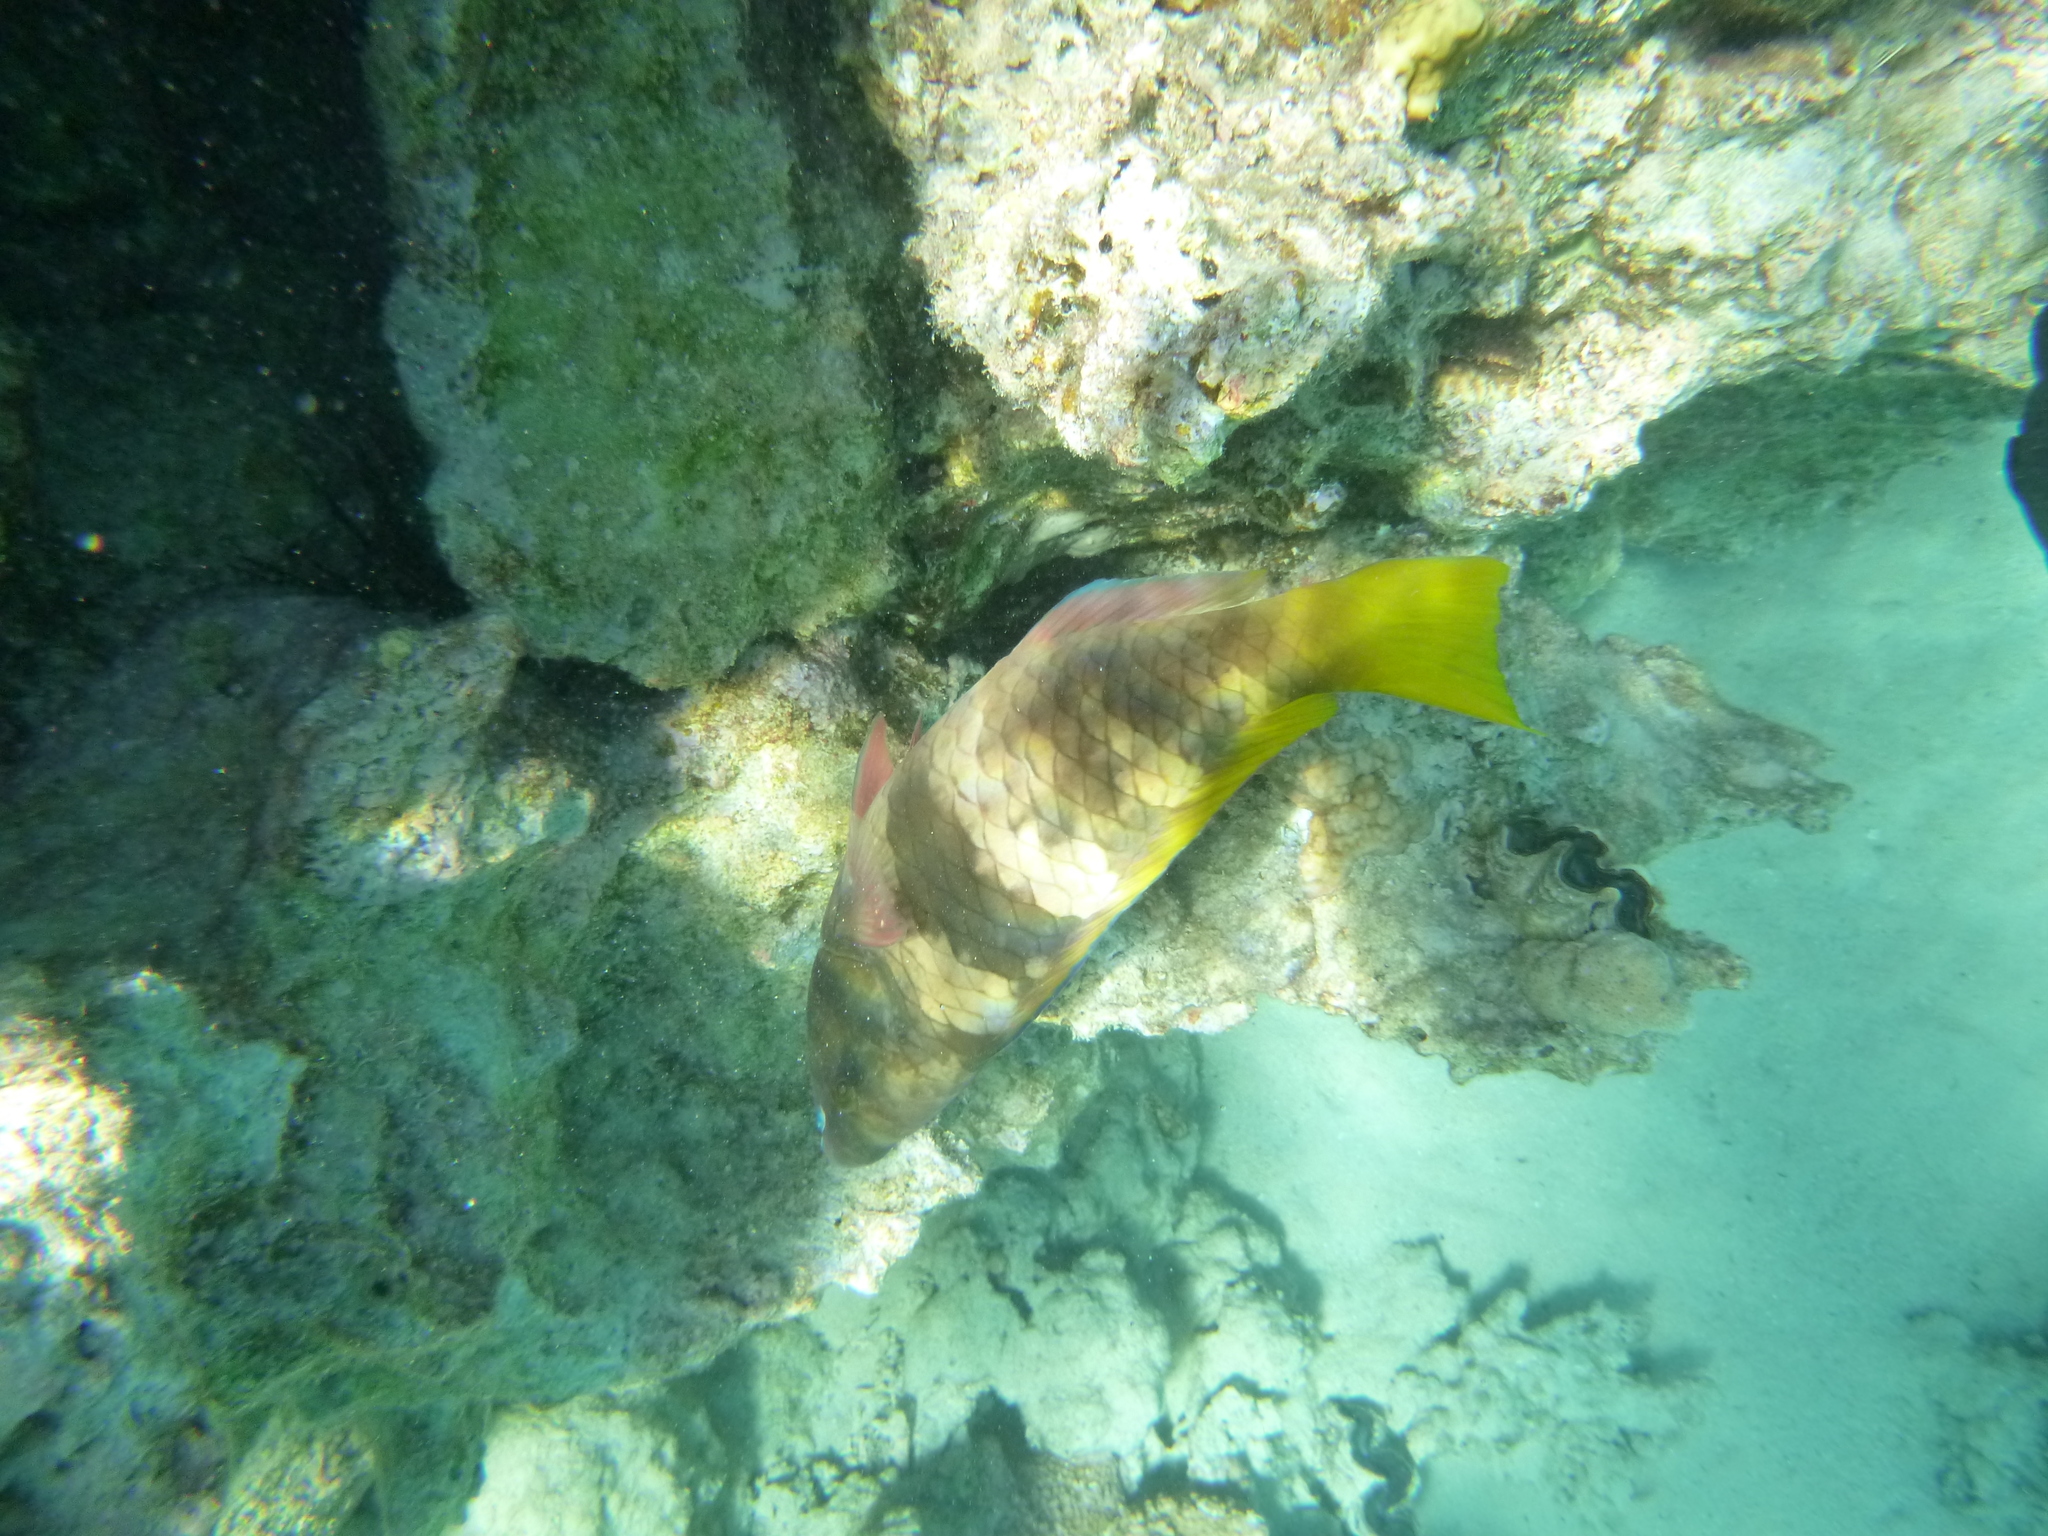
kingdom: Animalia
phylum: Chordata
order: Perciformes
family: Scaridae
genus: Scarus
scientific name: Scarus ferrugineus
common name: Rusty parrotfish
